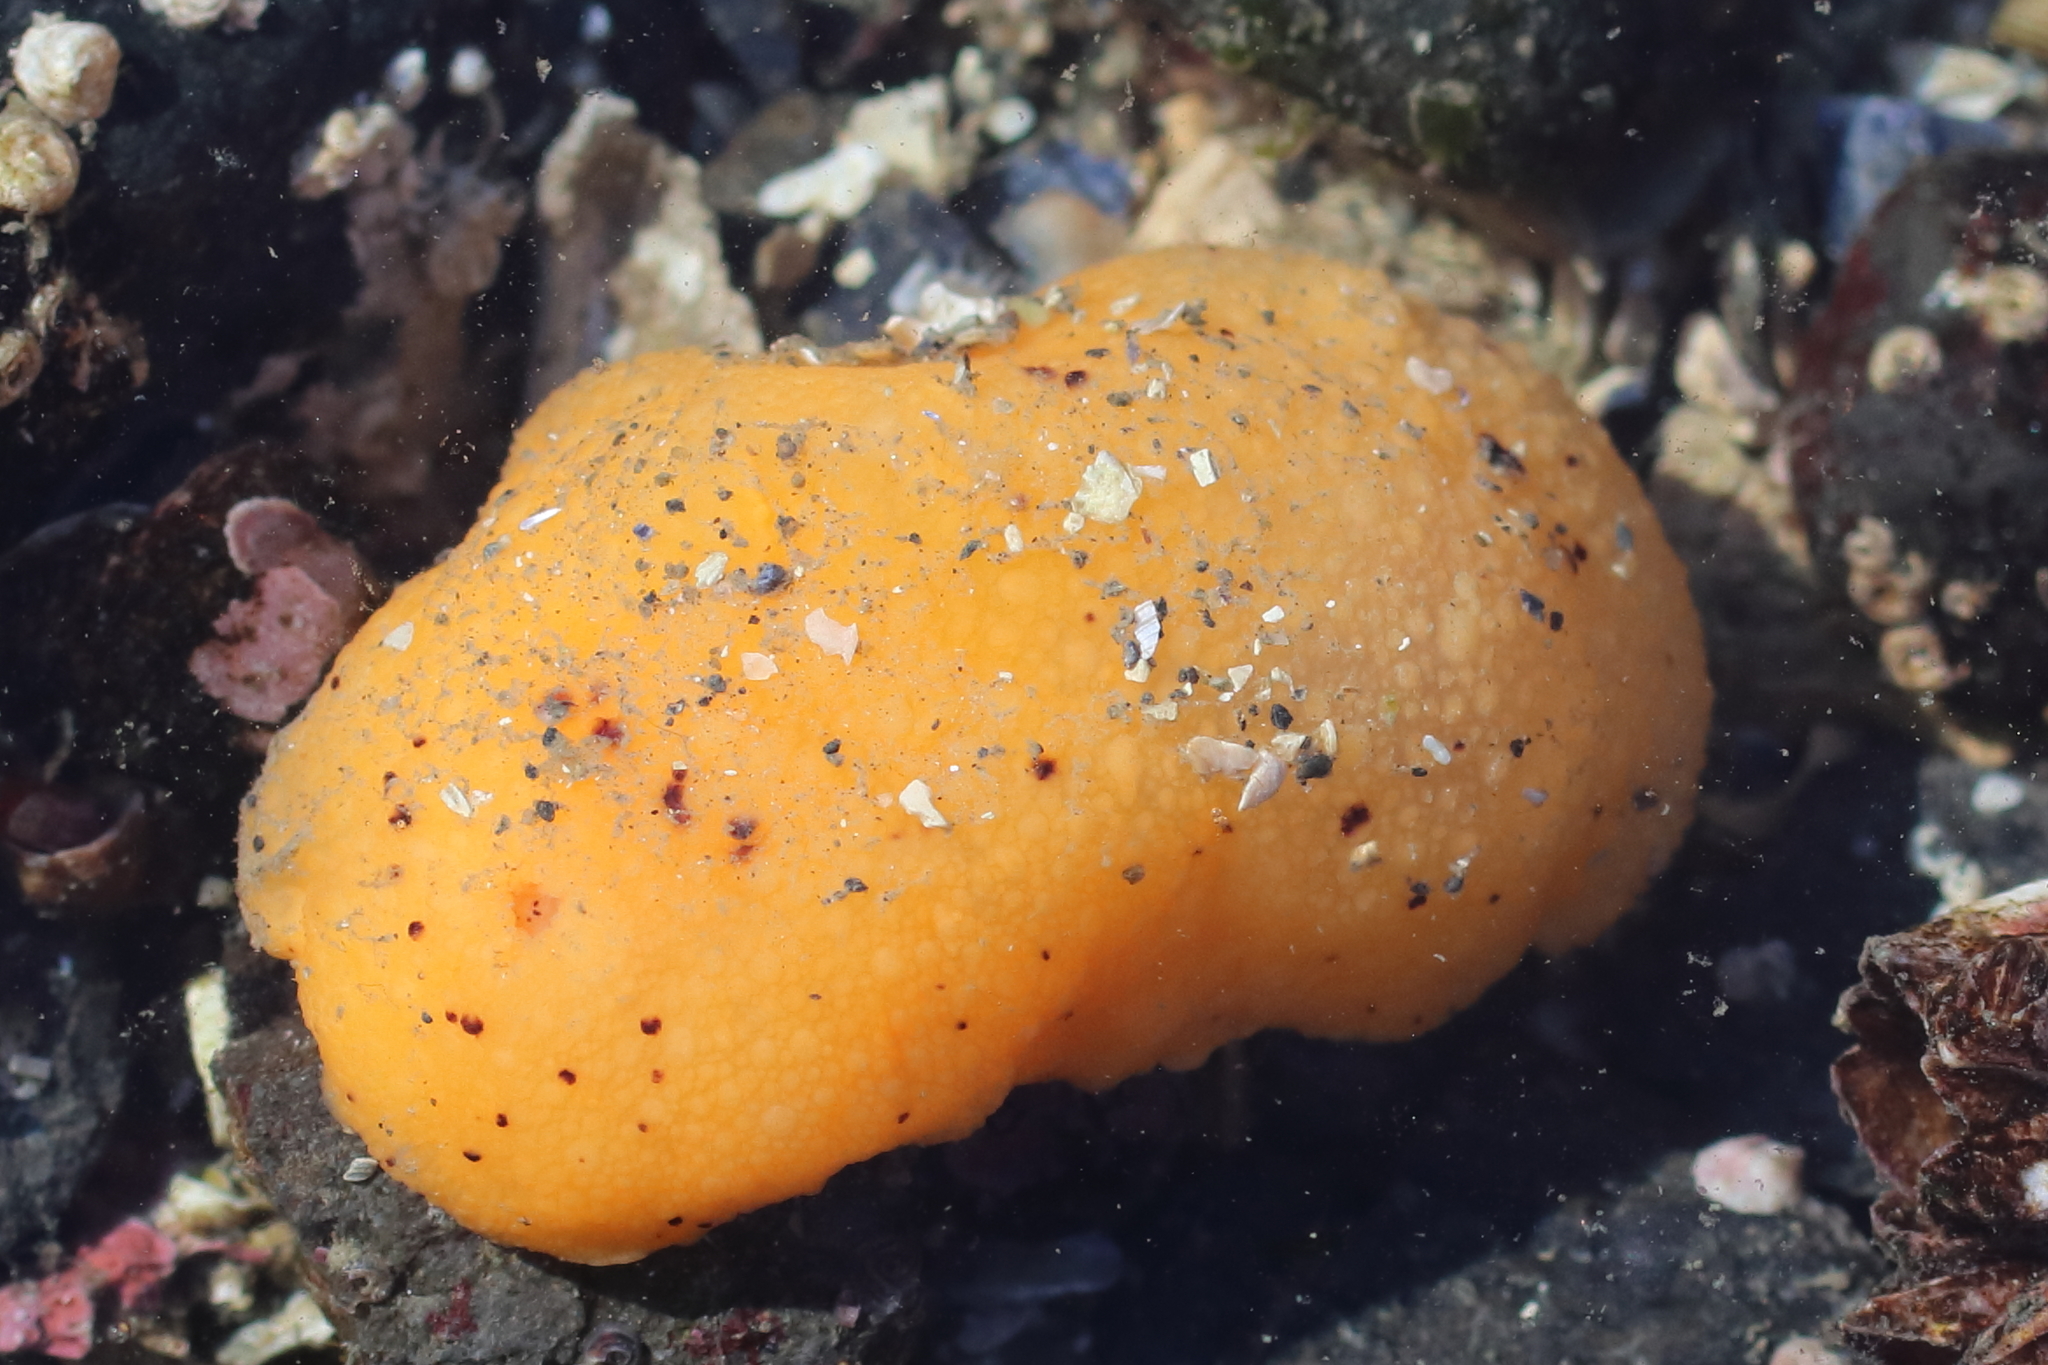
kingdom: Animalia
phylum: Mollusca
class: Gastropoda
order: Nudibranchia
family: Dorididae
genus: Doris
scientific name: Doris montereyensis
